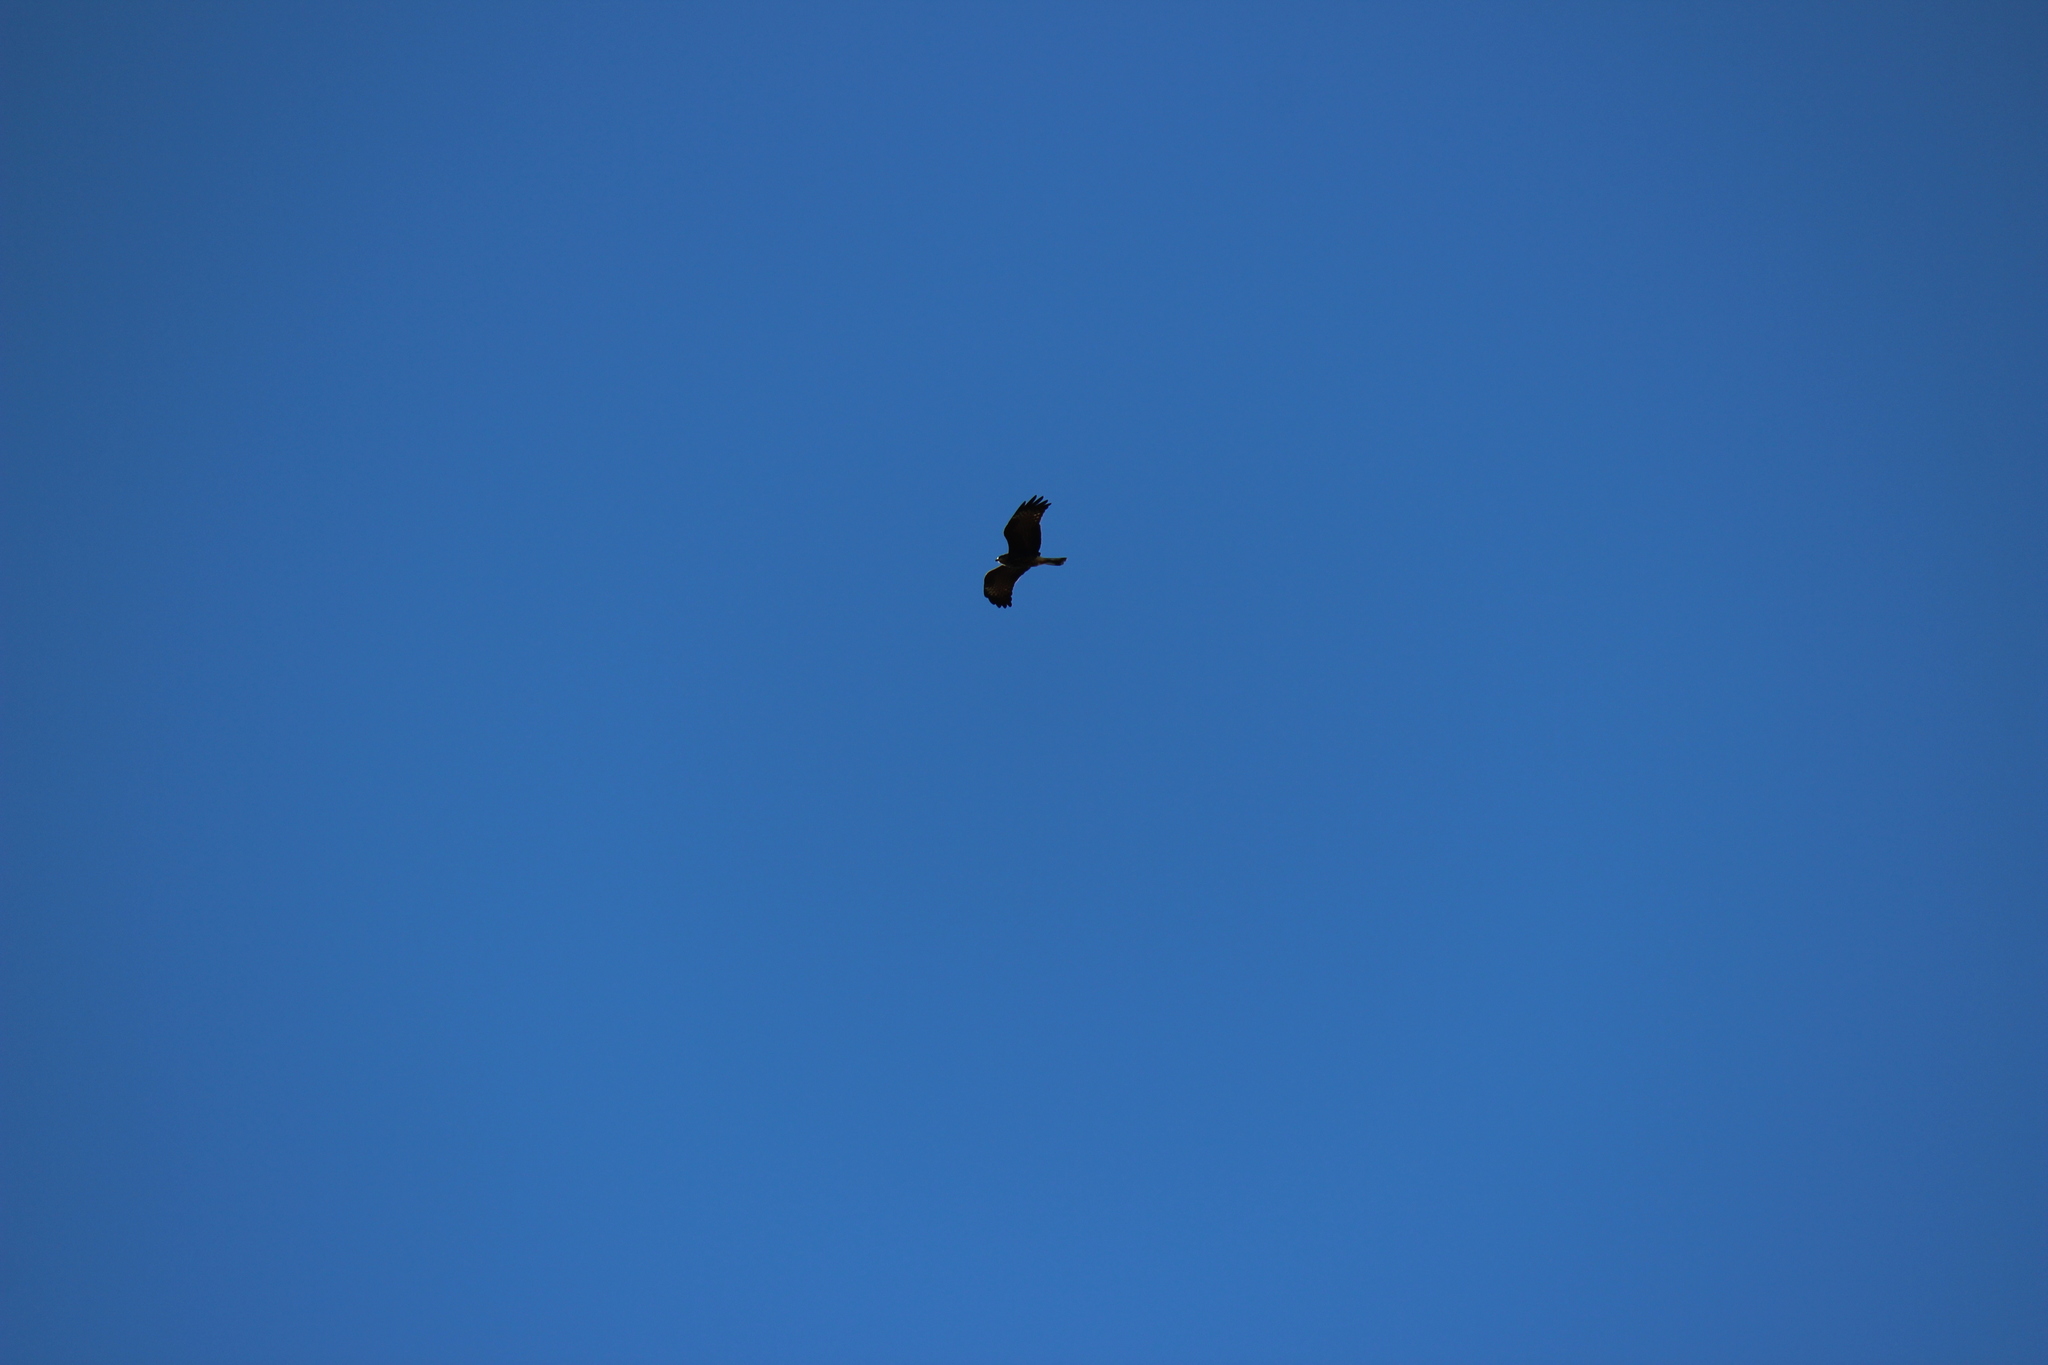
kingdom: Animalia
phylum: Chordata
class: Aves
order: Accipitriformes
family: Accipitridae
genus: Rostrhamus
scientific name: Rostrhamus sociabilis
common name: Snail kite
